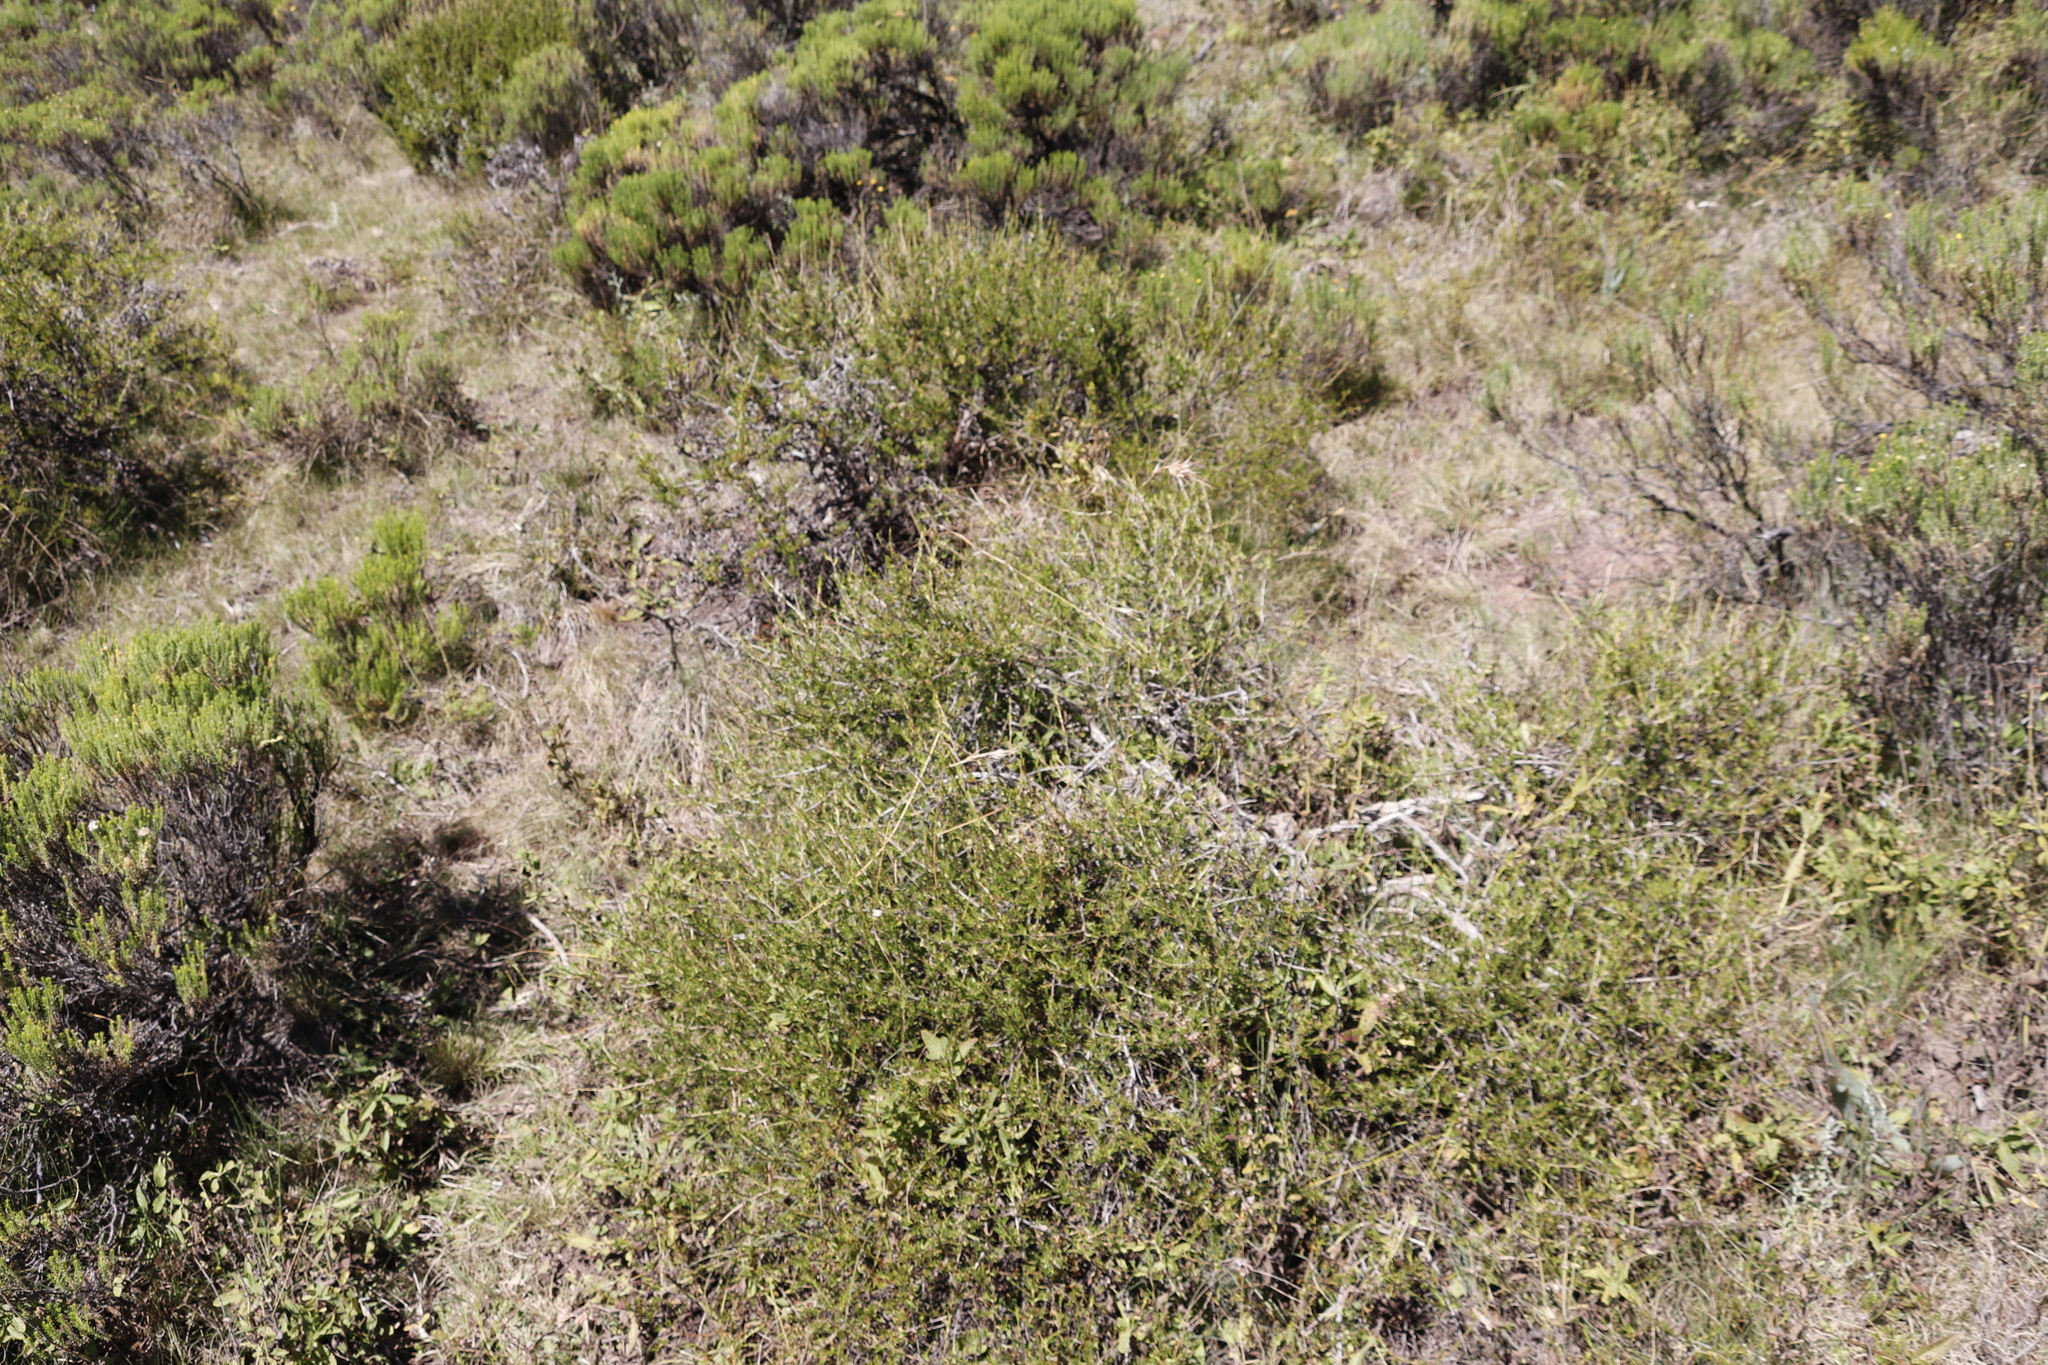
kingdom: Plantae
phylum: Tracheophyta
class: Liliopsida
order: Poales
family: Poaceae
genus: Themeda
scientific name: Themeda triandra
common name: Kangaroo grass
